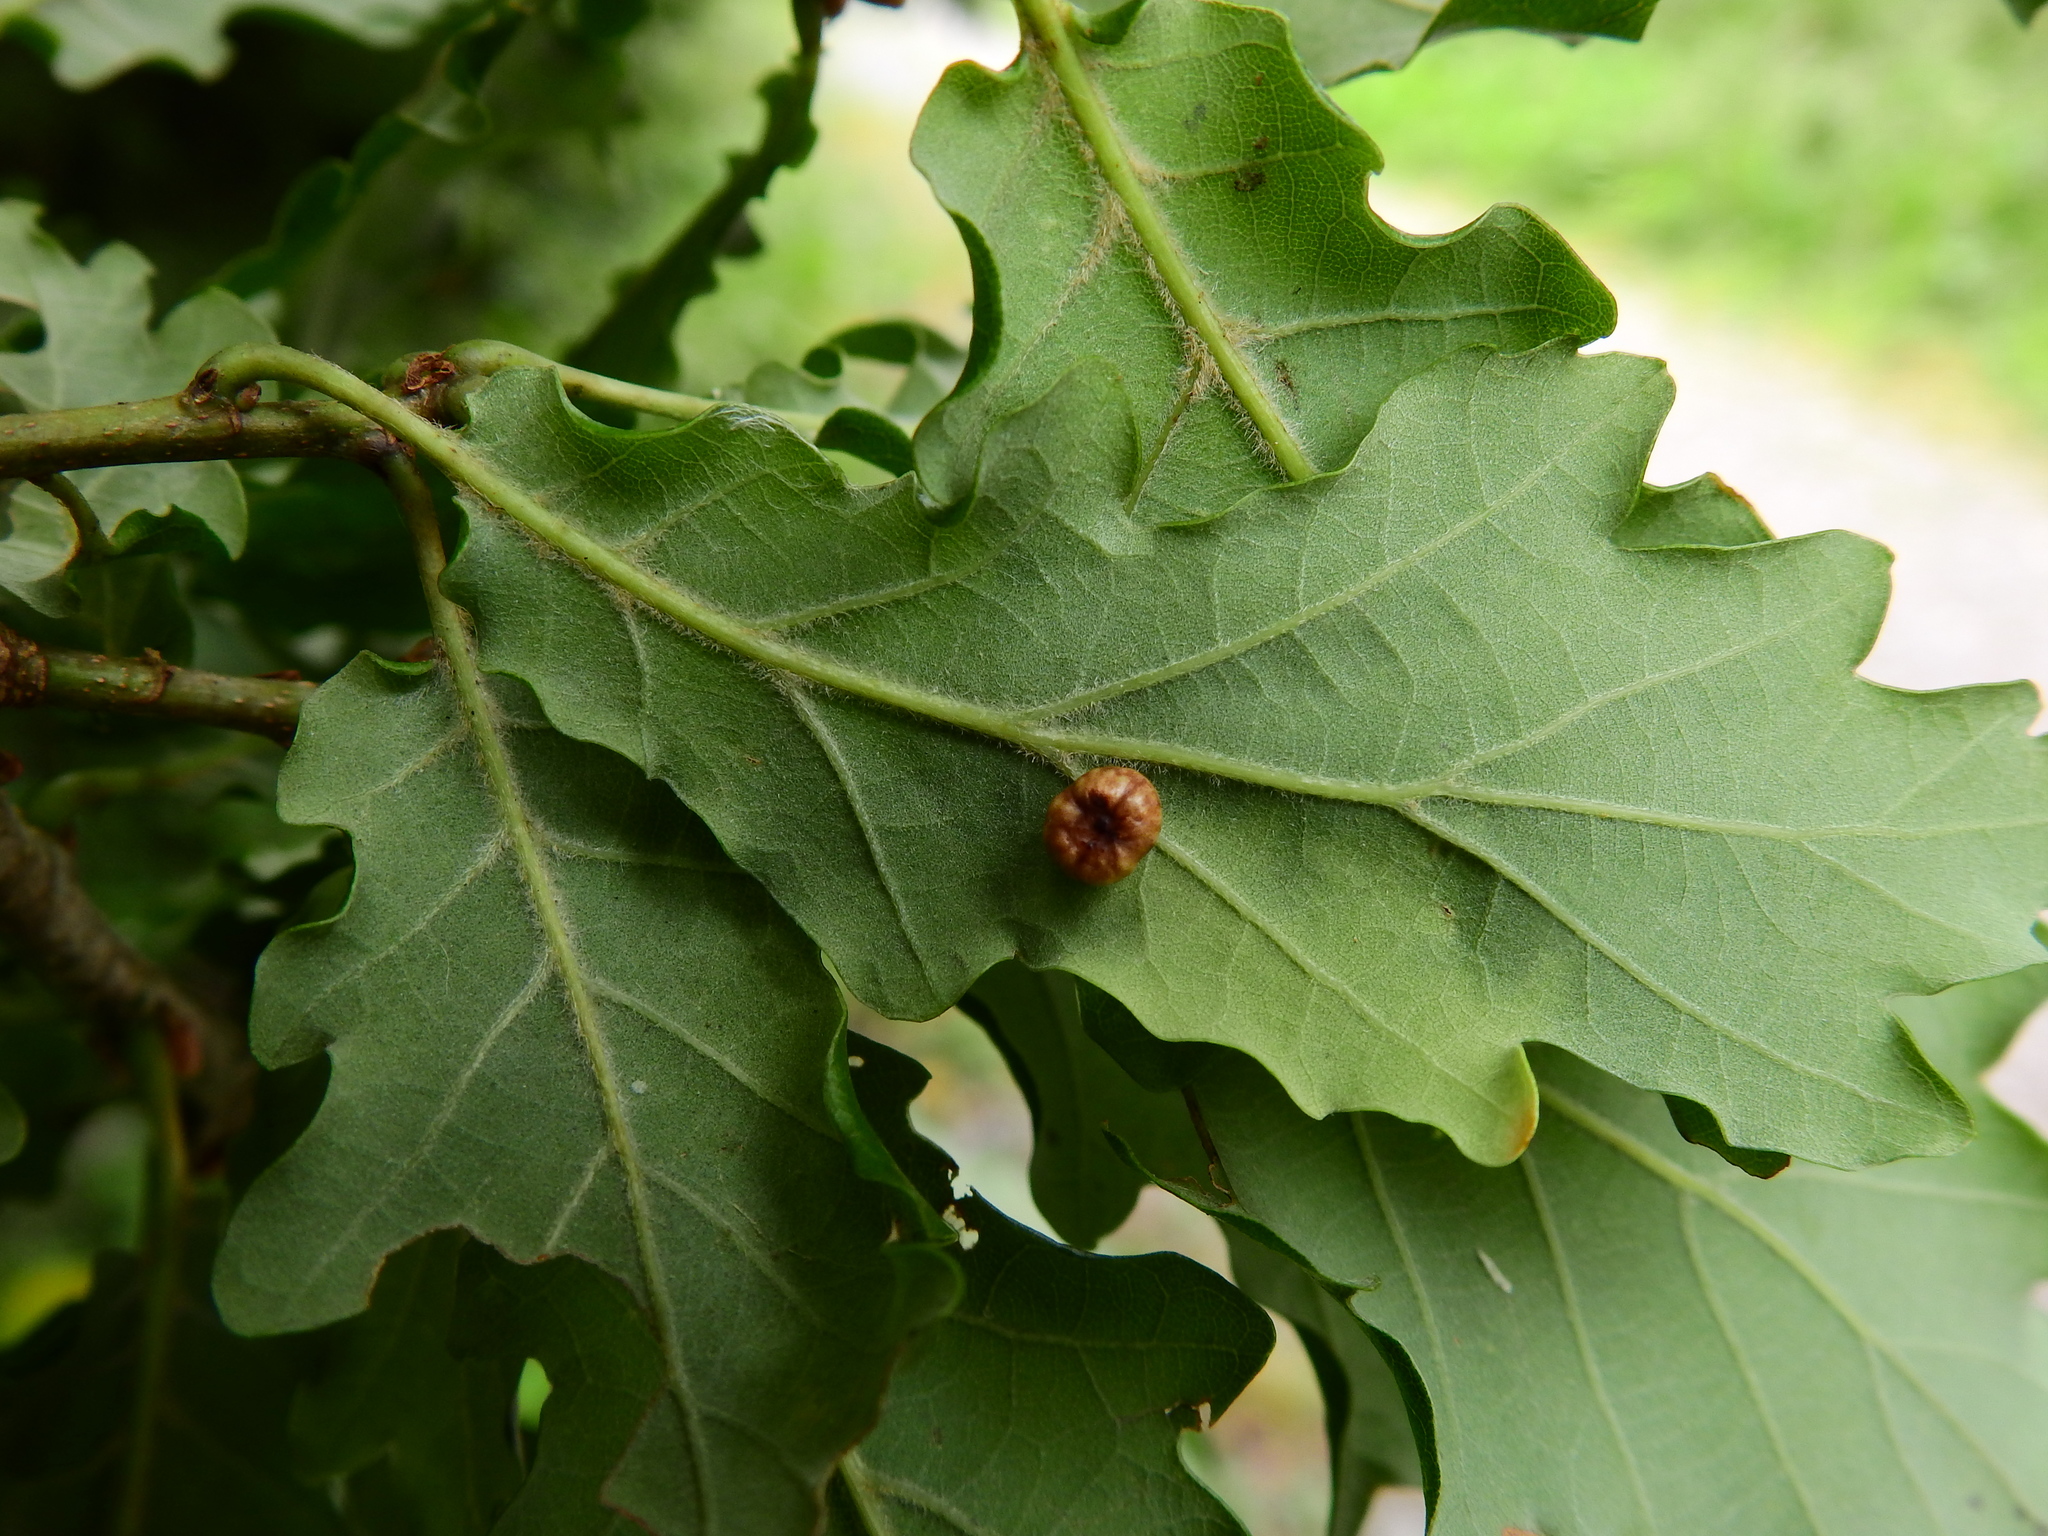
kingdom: Animalia
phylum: Arthropoda
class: Insecta
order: Hymenoptera
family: Cynipidae
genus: Cynips
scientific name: Cynips disticha
